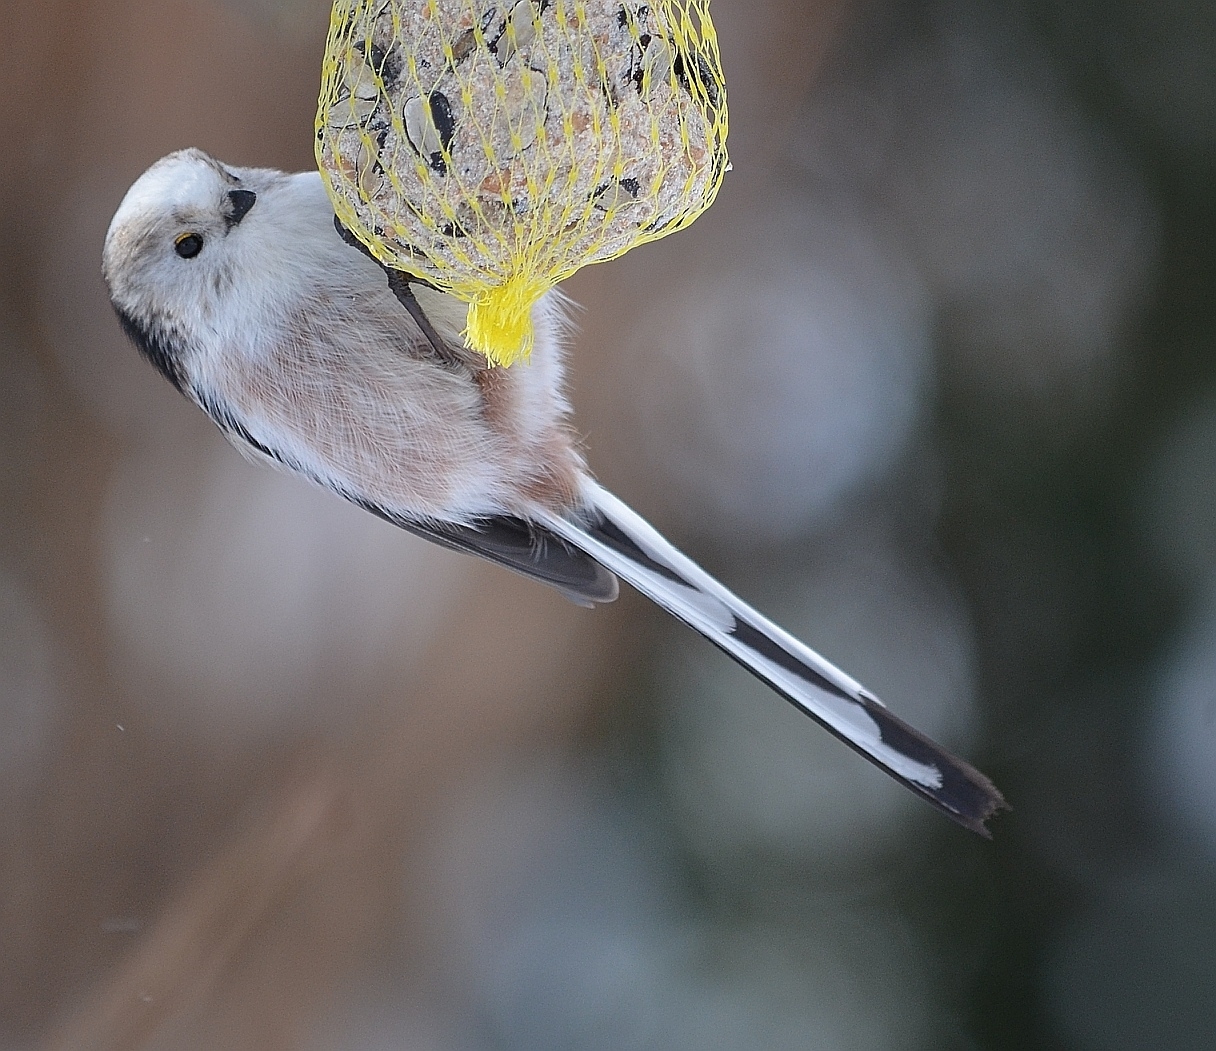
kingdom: Animalia
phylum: Chordata
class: Aves
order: Passeriformes
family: Aegithalidae
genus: Aegithalos
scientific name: Aegithalos caudatus
